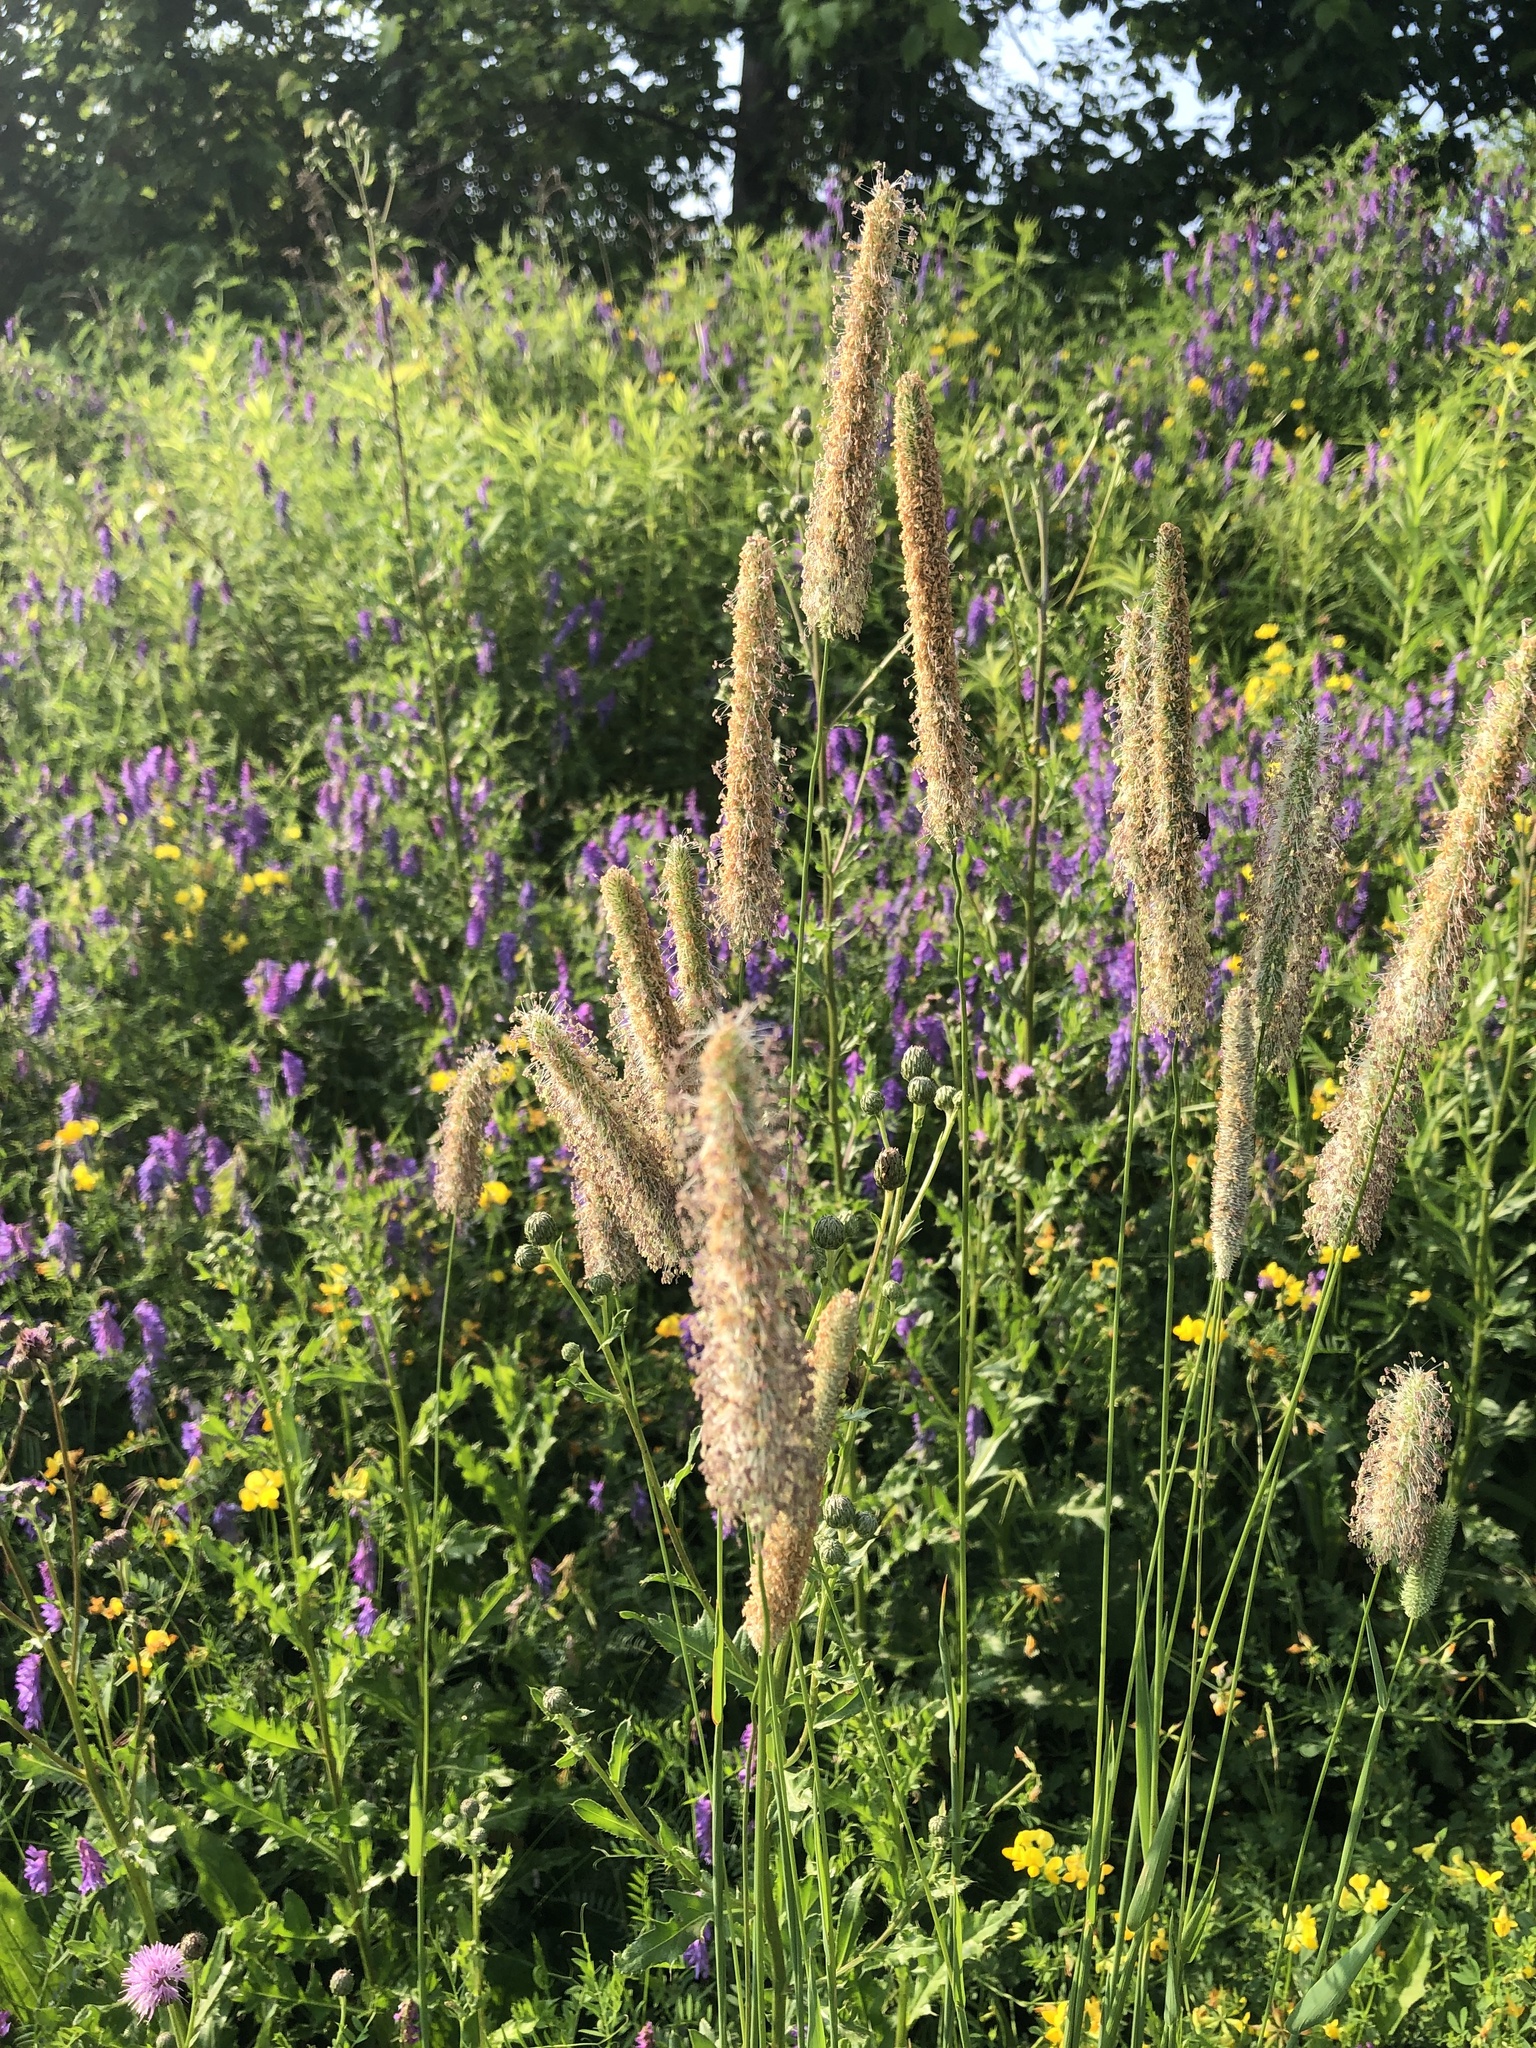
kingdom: Plantae
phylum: Tracheophyta
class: Liliopsida
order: Poales
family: Poaceae
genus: Phleum
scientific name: Phleum pratense
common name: Timothy grass
